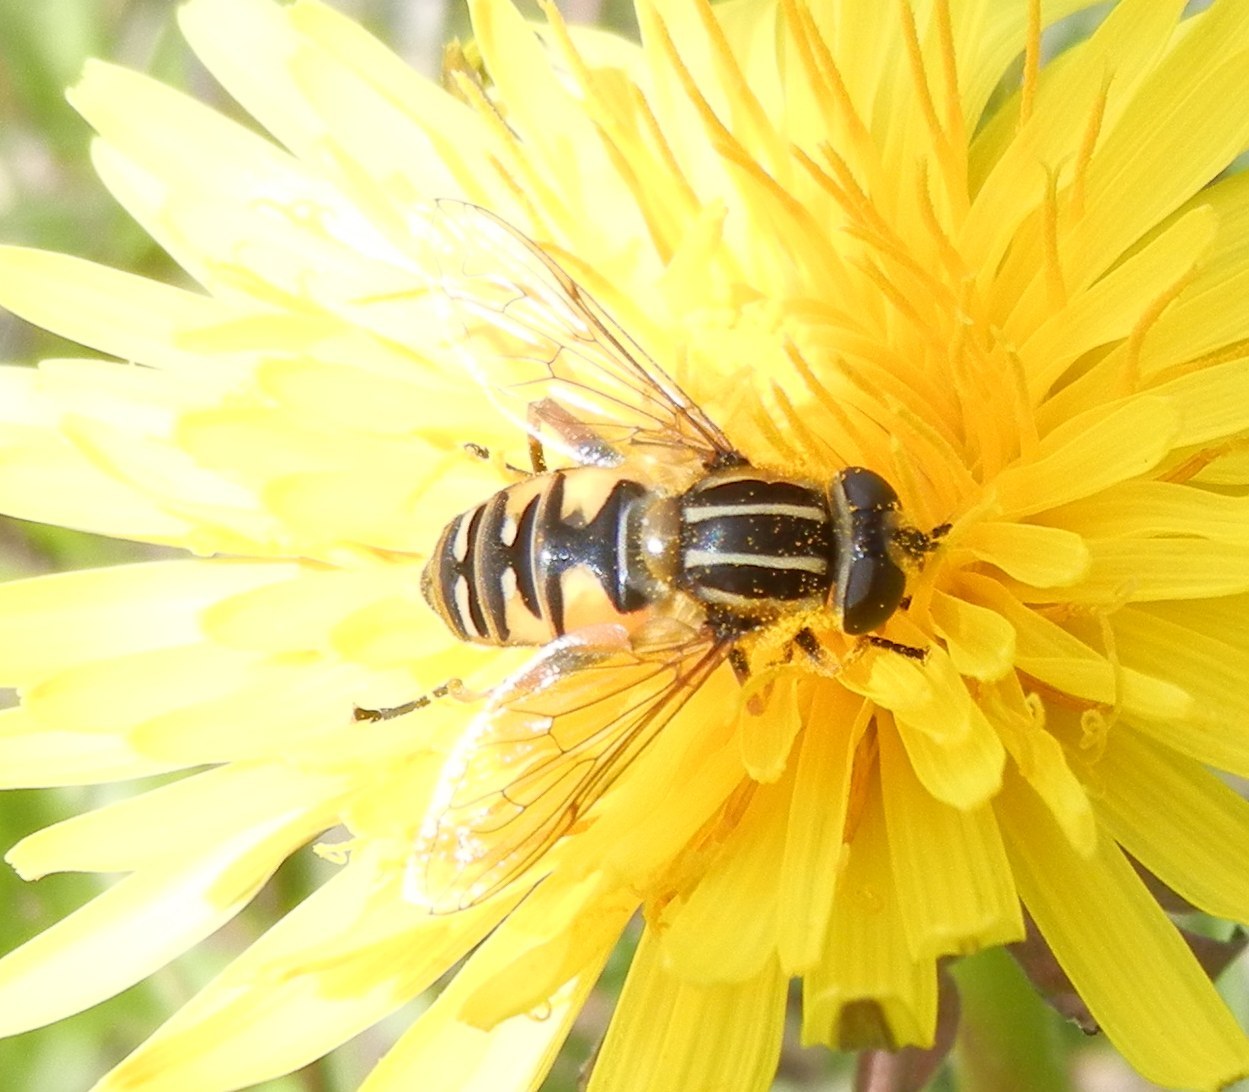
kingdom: Animalia
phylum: Arthropoda
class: Insecta
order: Diptera
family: Syrphidae
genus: Helophilus
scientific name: Helophilus pendulus
